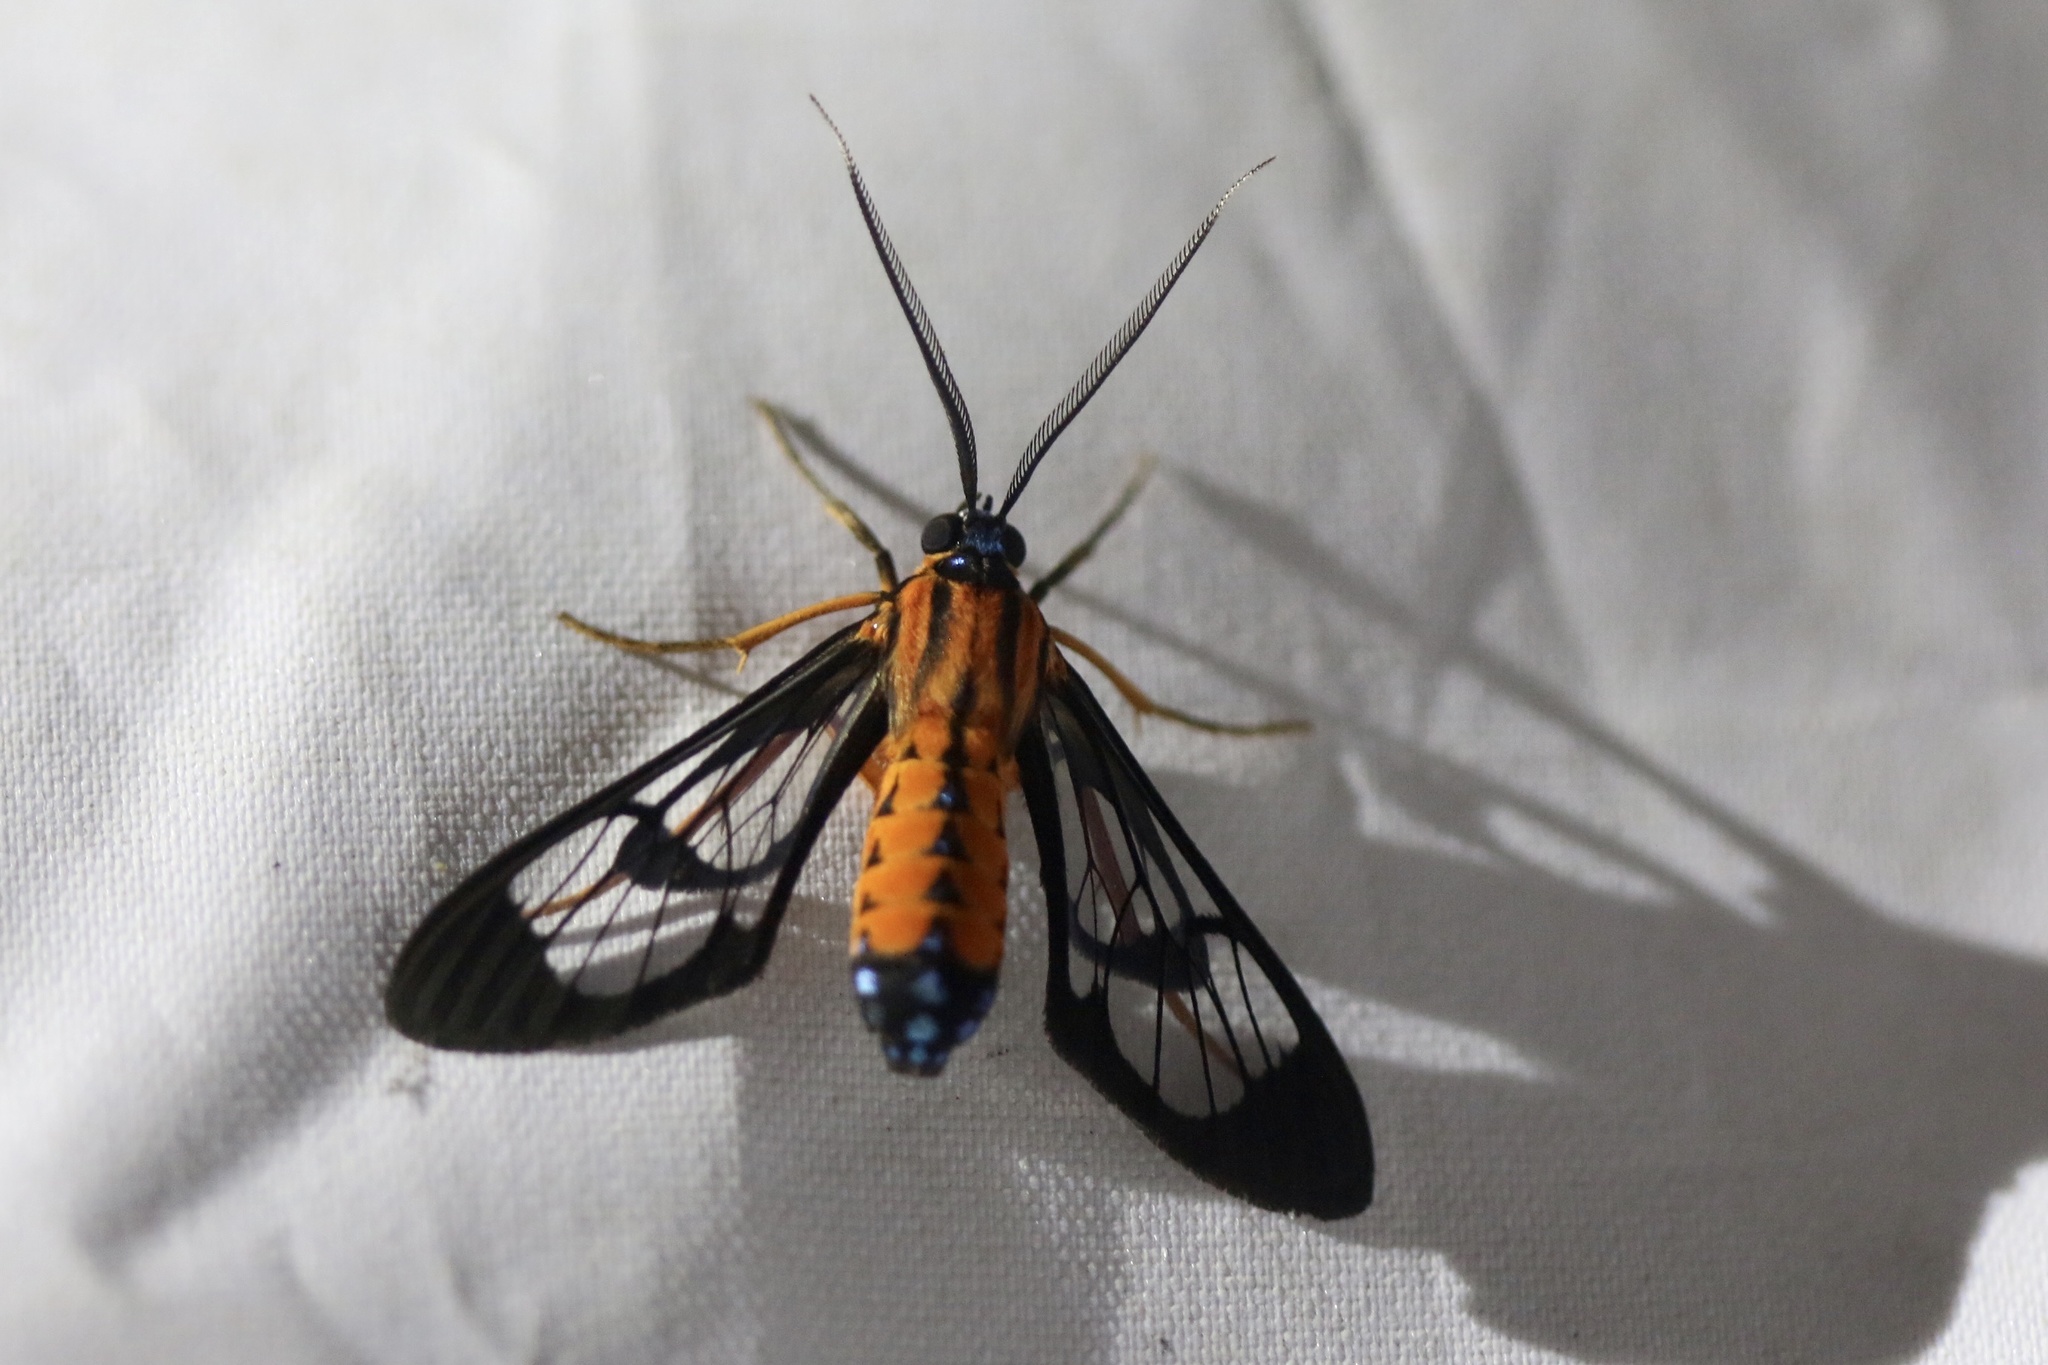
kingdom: Animalia
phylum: Arthropoda
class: Insecta
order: Lepidoptera
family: Erebidae
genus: Cosmosoma
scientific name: Cosmosoma brinkleyi
